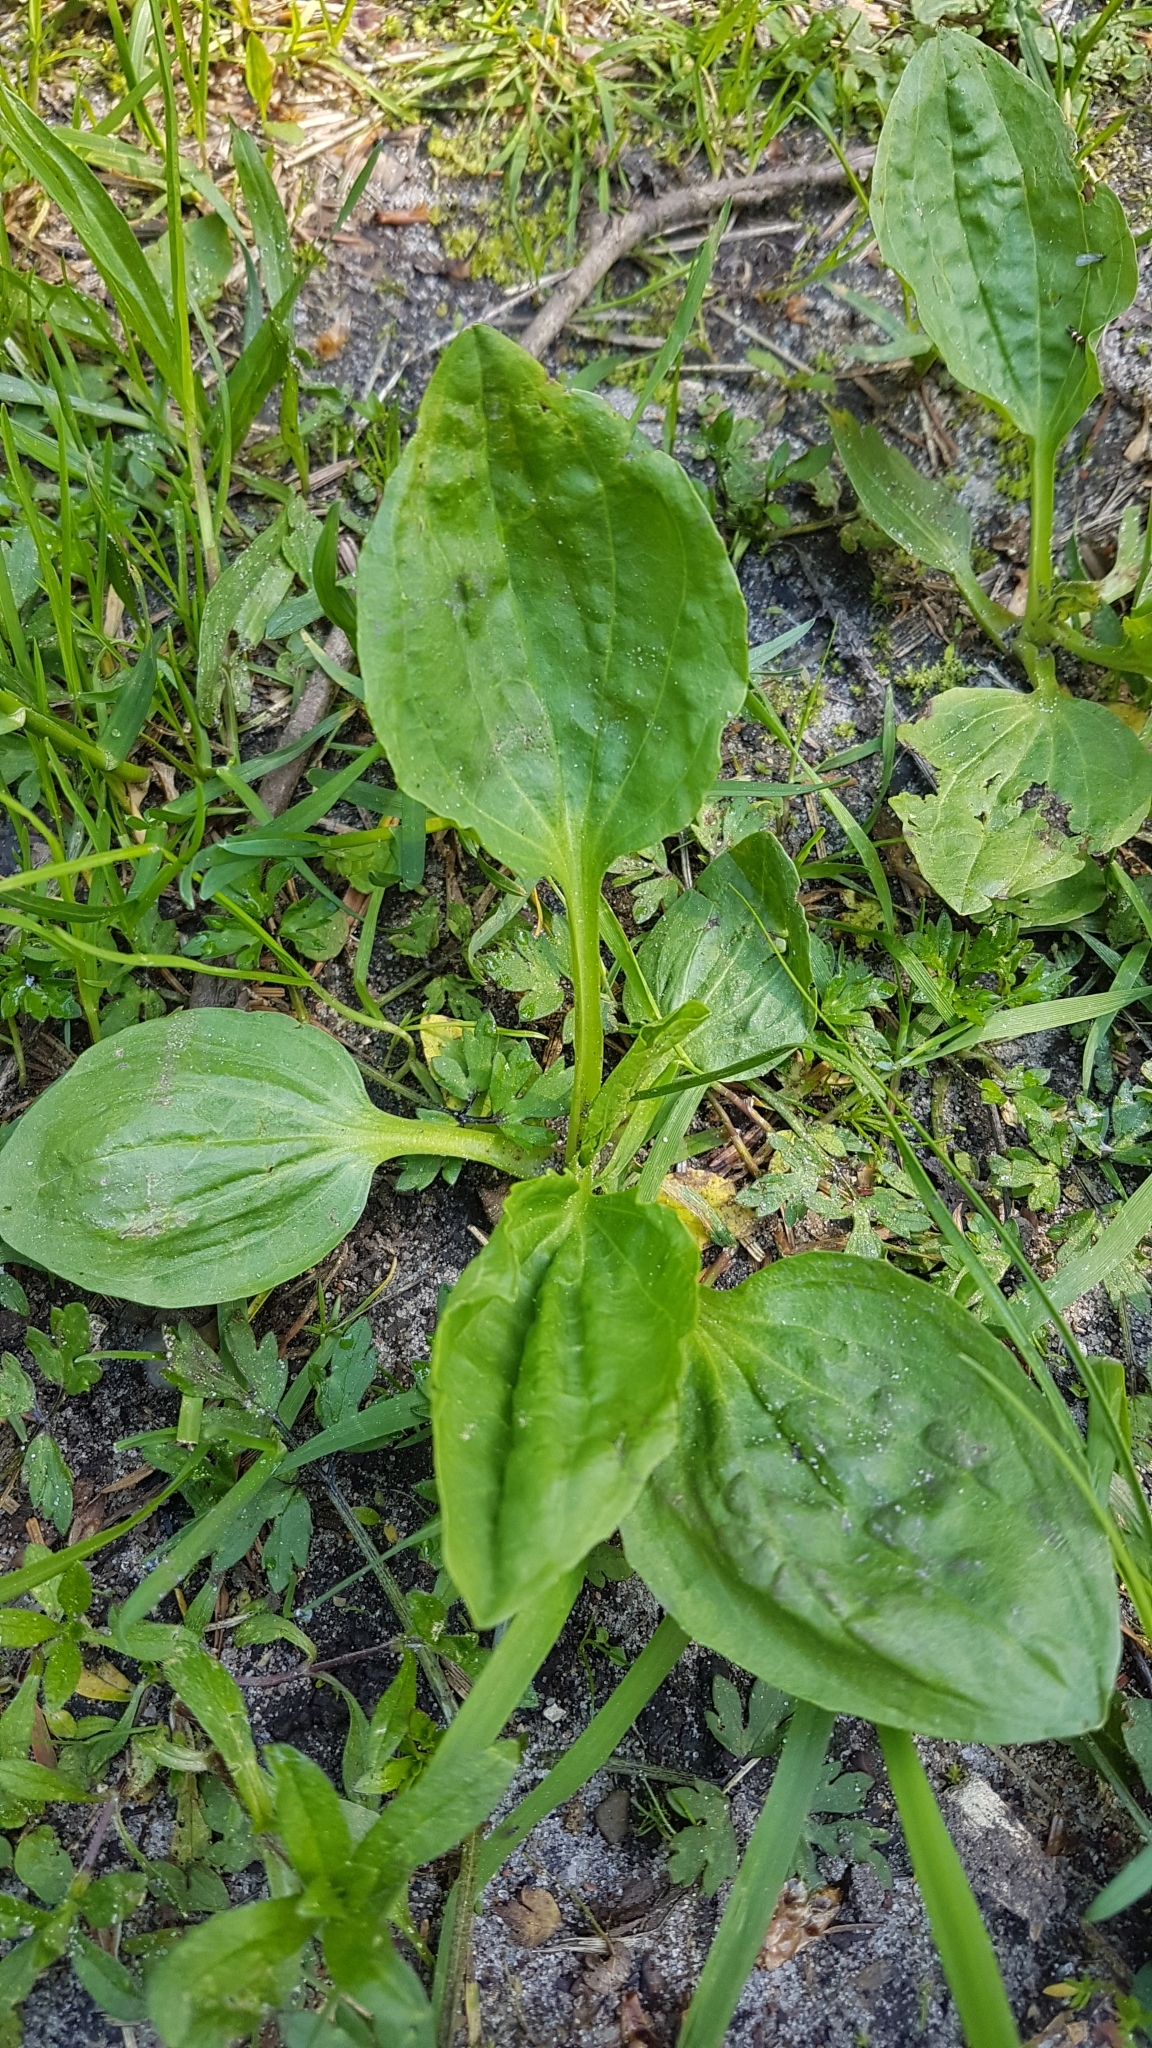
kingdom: Plantae
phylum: Tracheophyta
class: Magnoliopsida
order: Lamiales
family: Plantaginaceae
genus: Plantago
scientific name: Plantago major
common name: Common plantain
